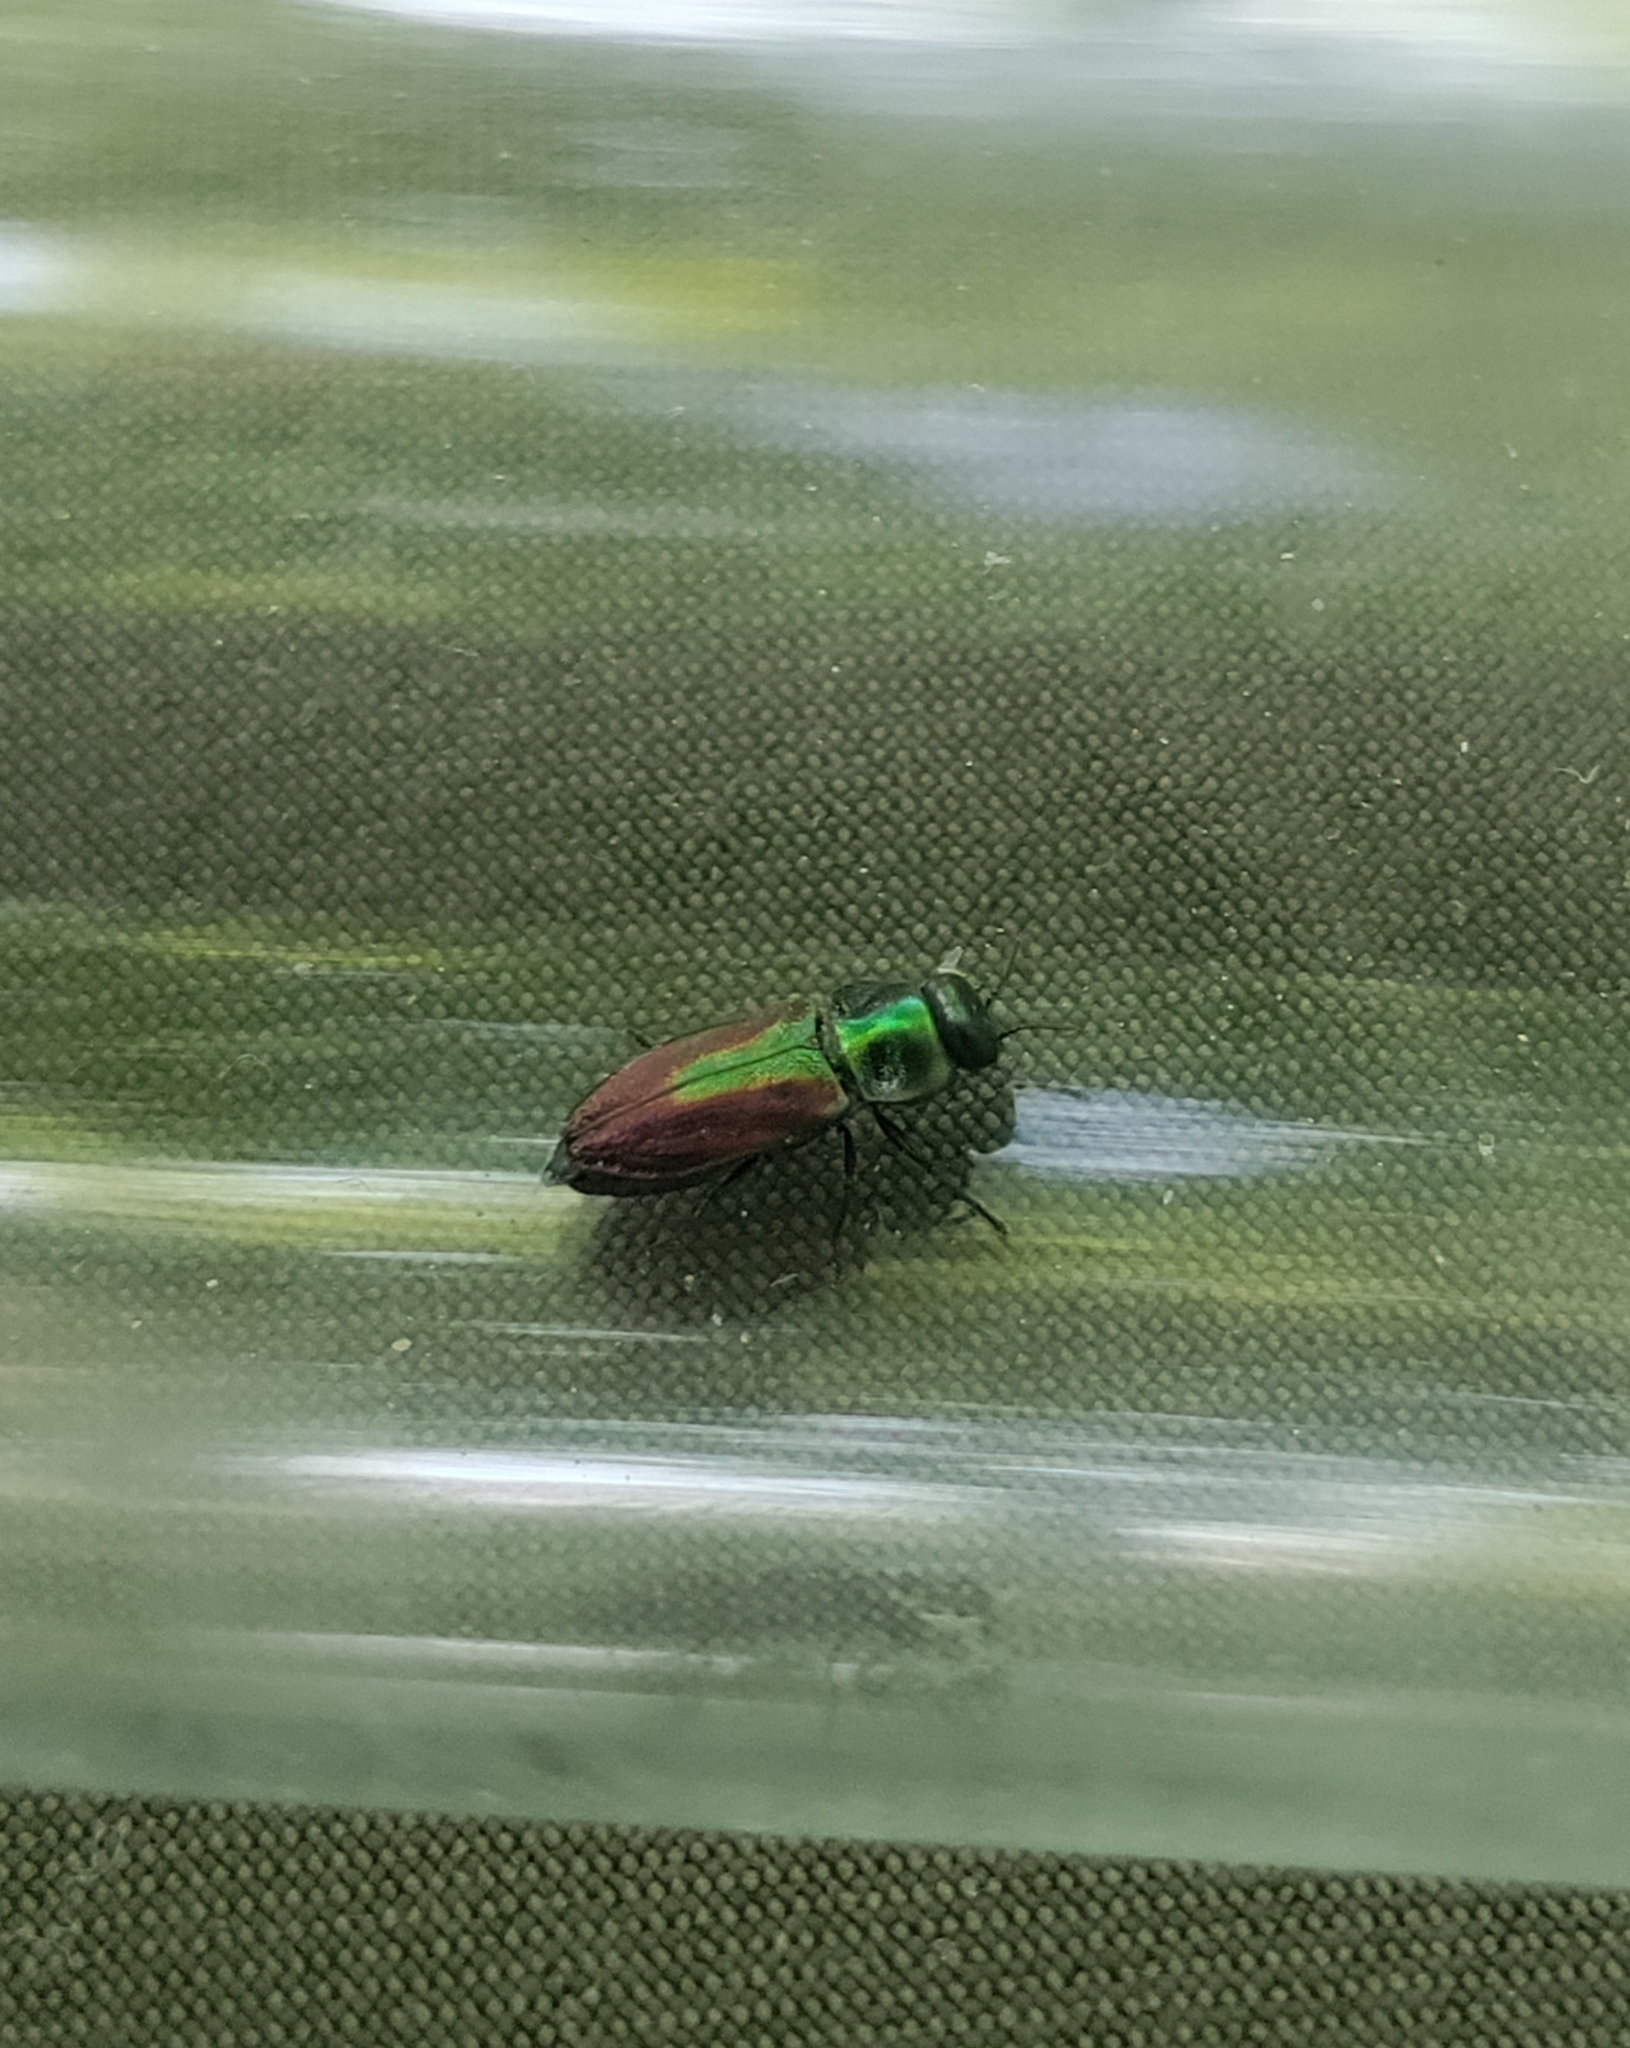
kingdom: Animalia
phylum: Arthropoda
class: Insecta
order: Coleoptera
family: Buprestidae
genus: Anthaxia
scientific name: Anthaxia fulgurans
